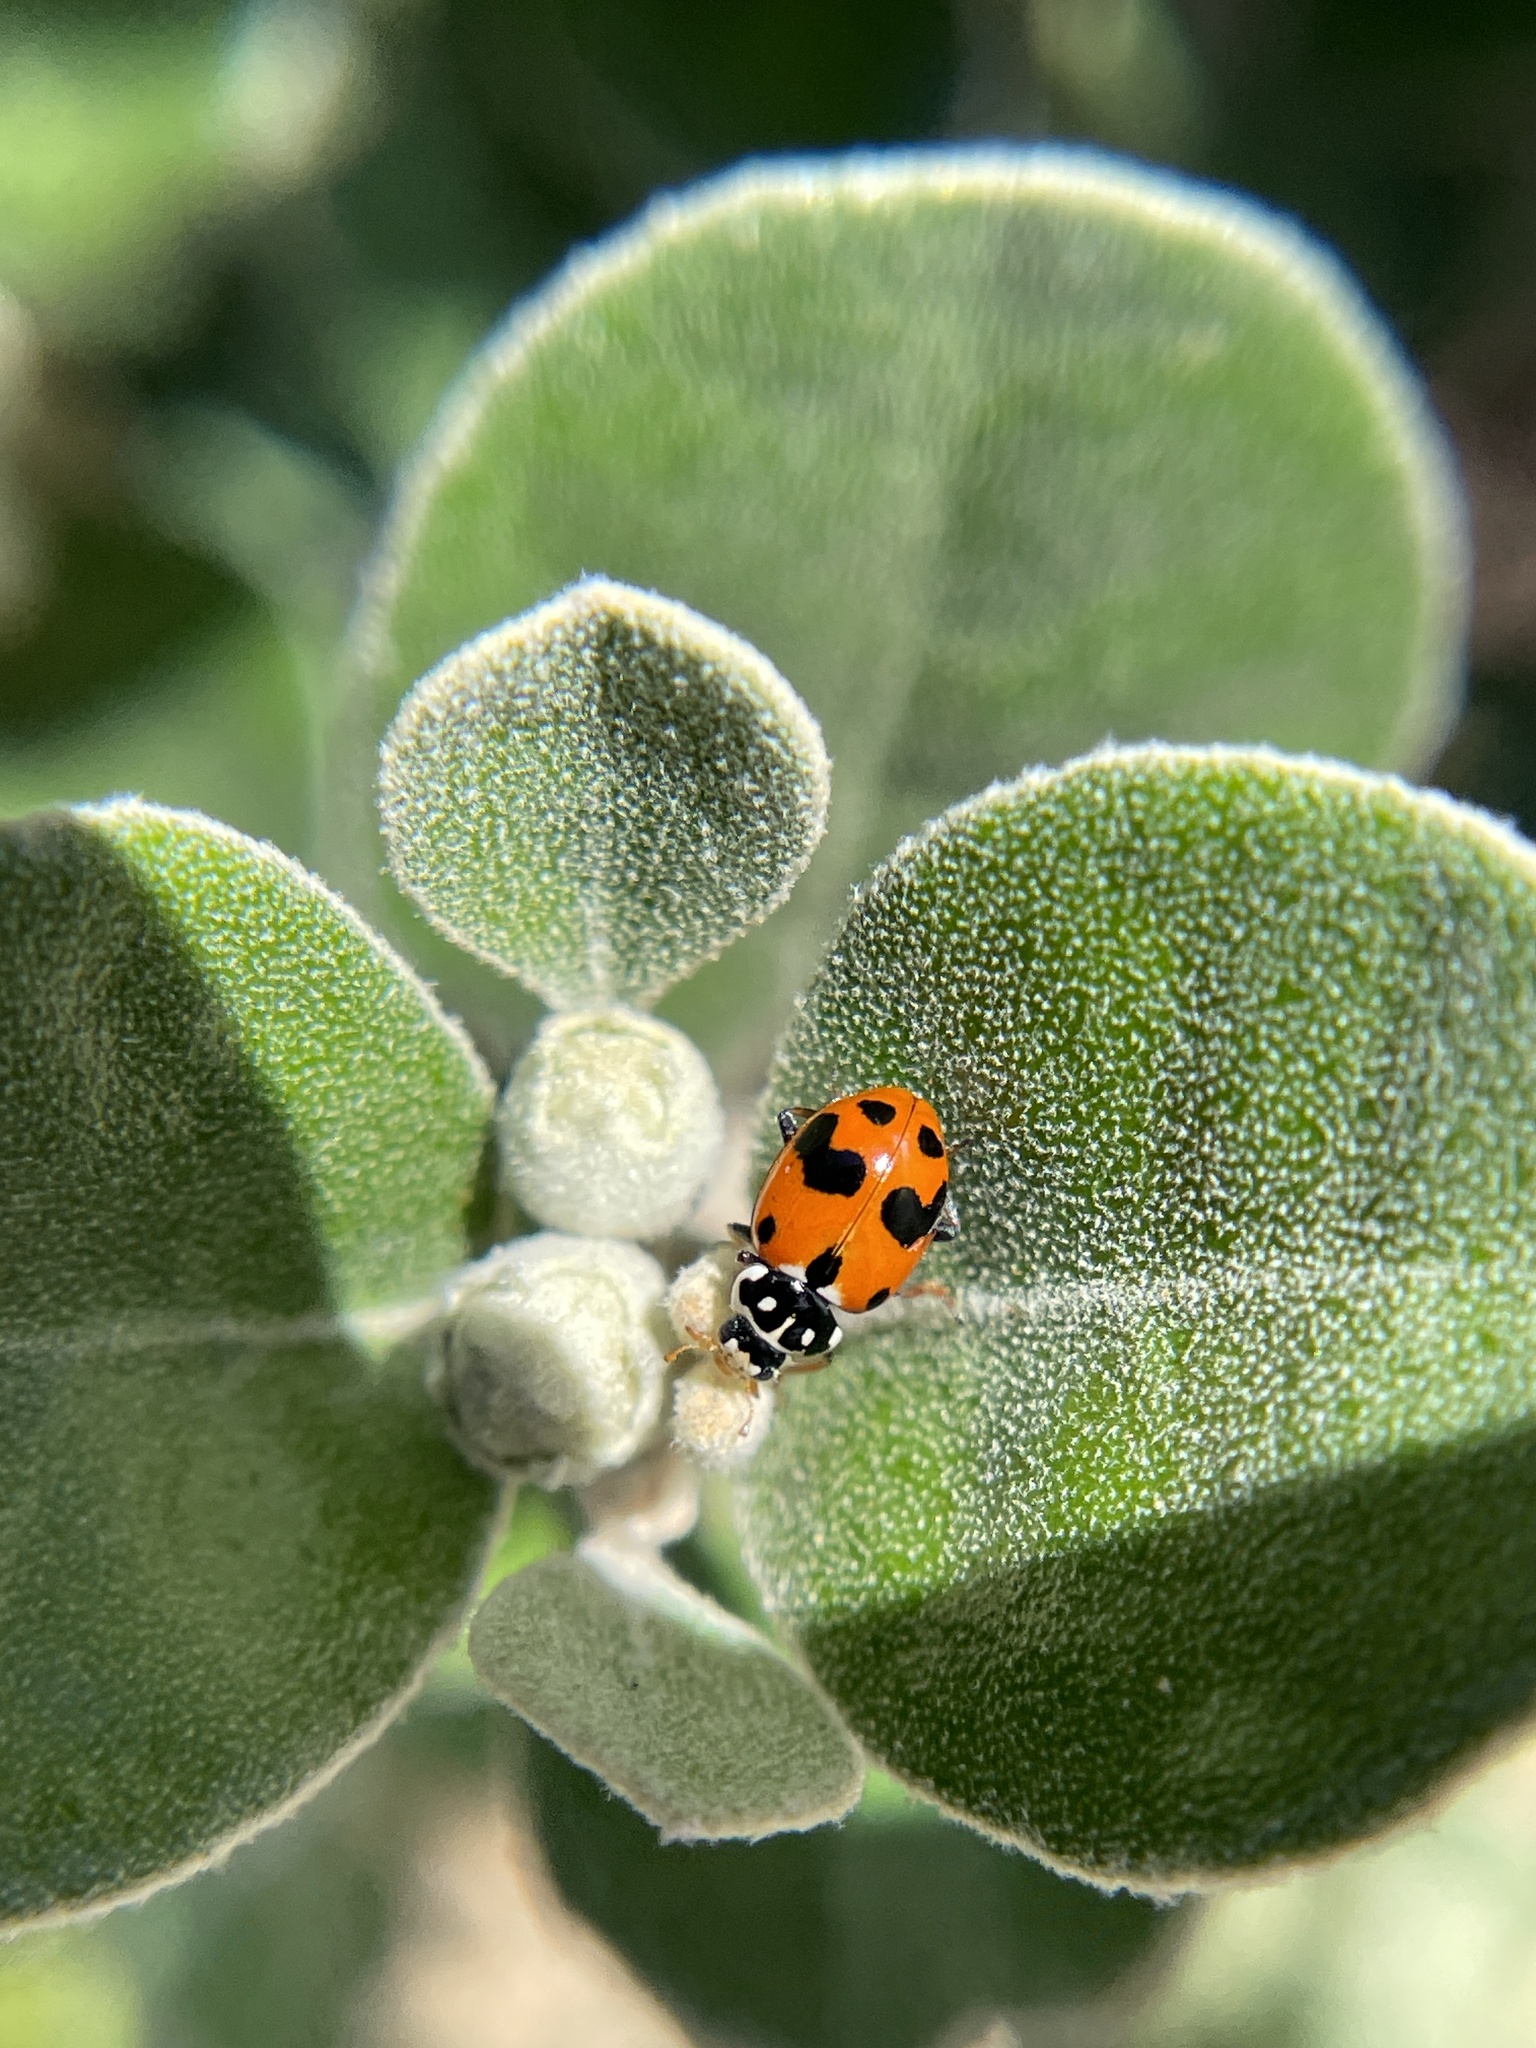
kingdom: Animalia
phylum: Arthropoda
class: Insecta
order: Coleoptera
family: Coccinellidae
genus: Hippodamia
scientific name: Hippodamia variegata
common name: Ladybird beetle
